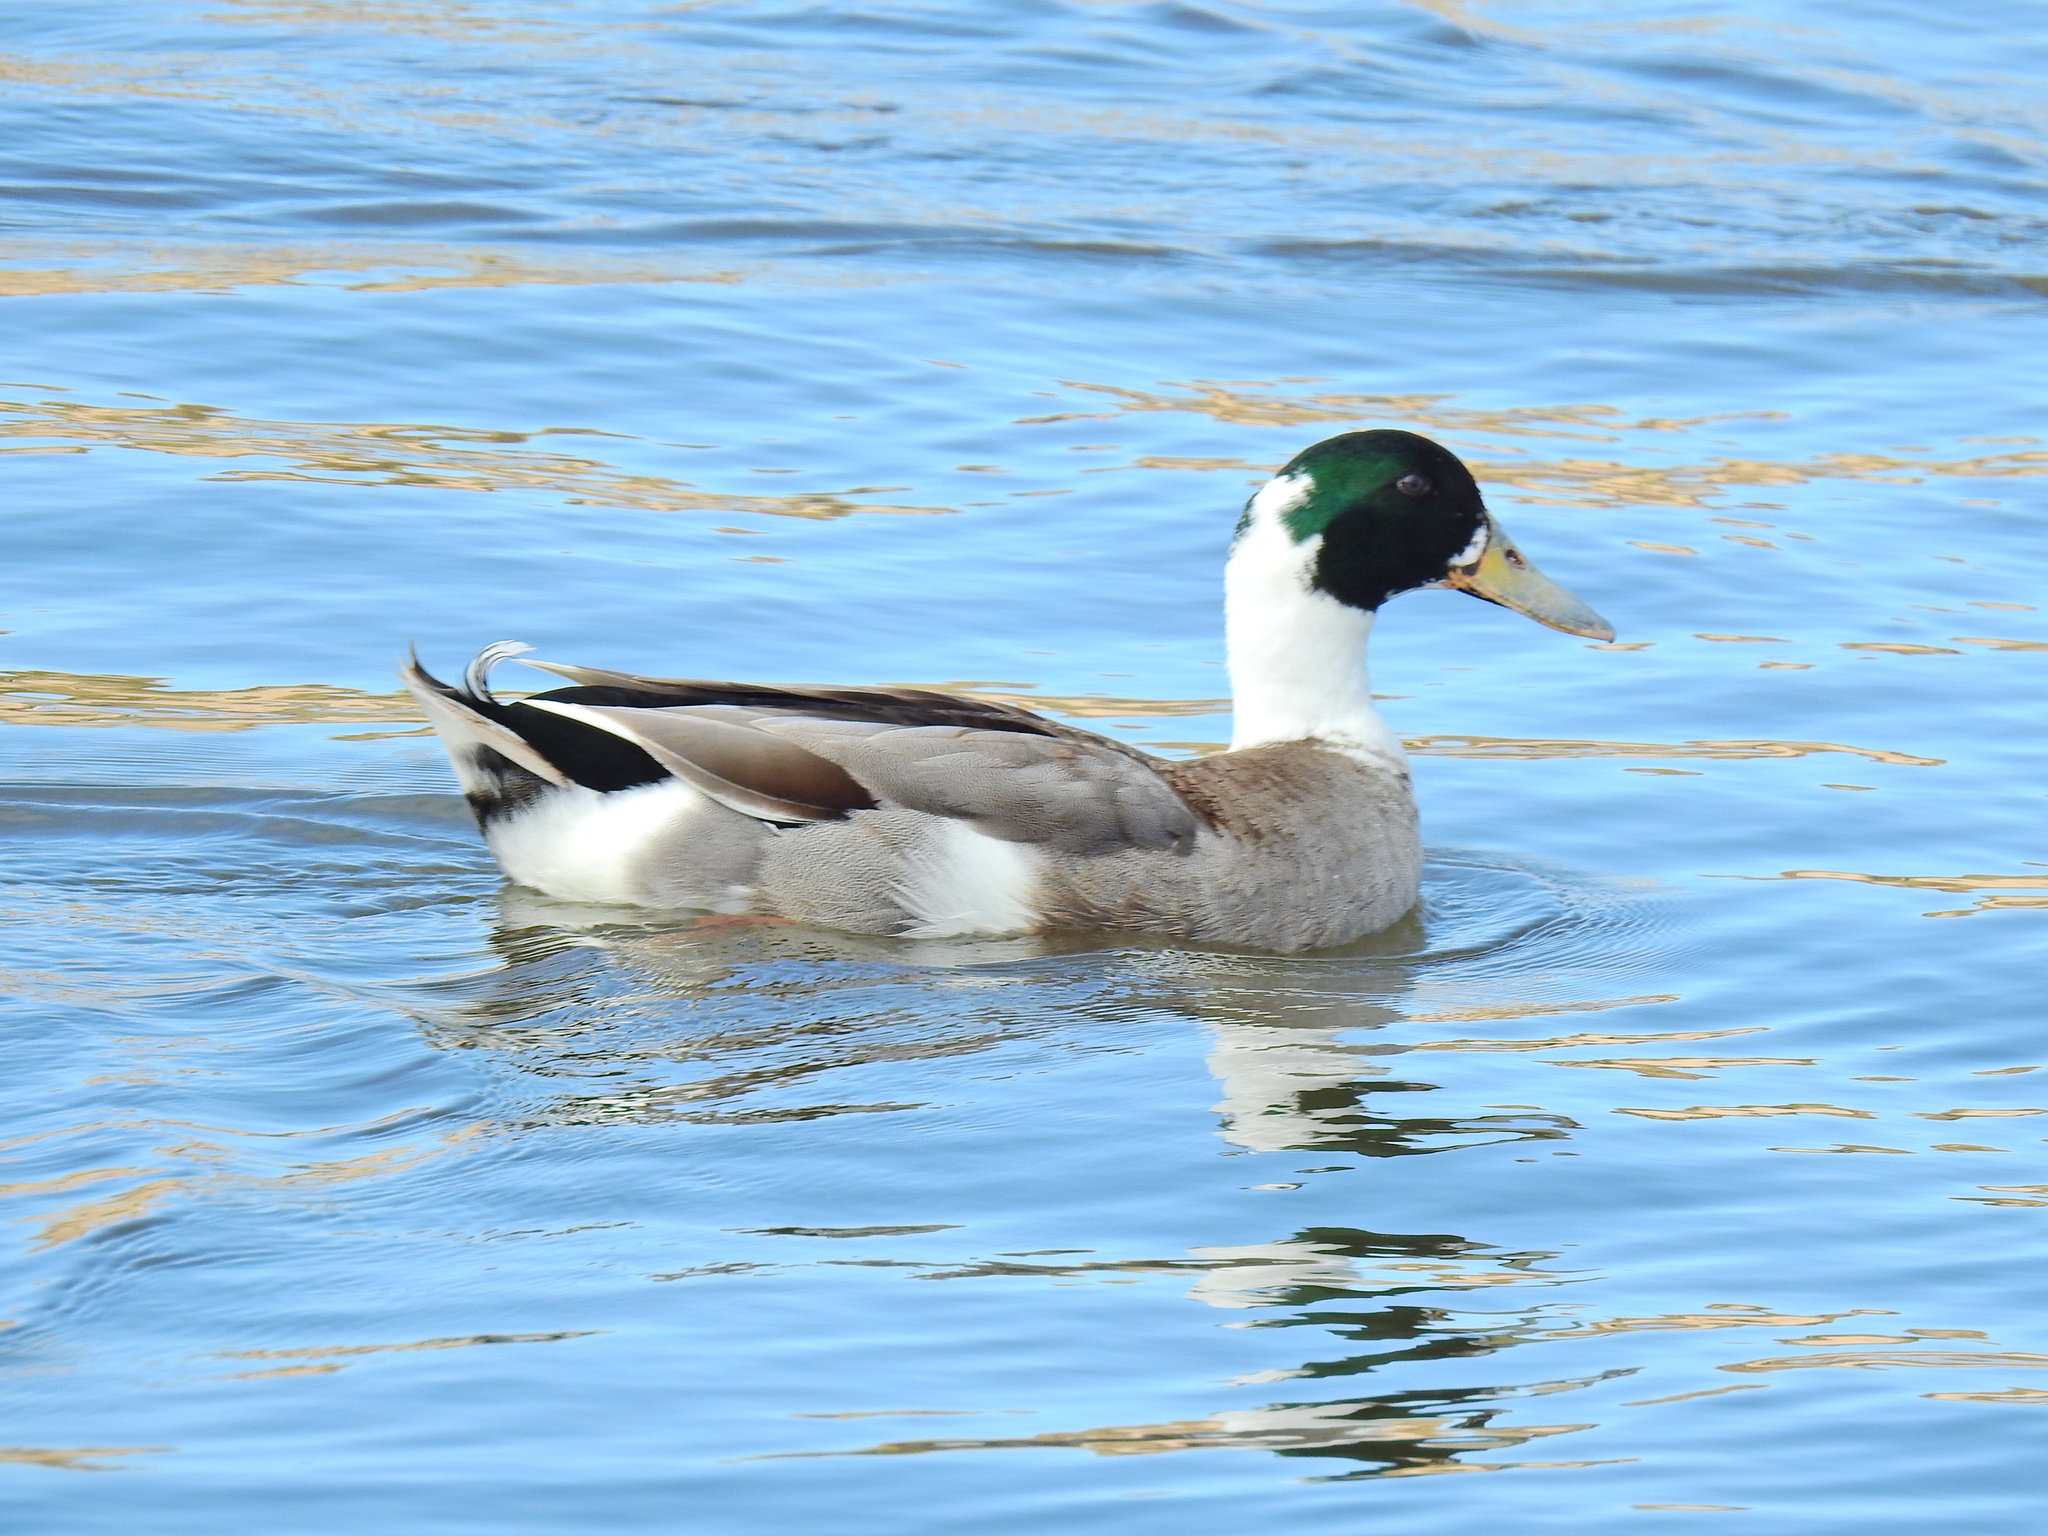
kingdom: Animalia
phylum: Chordata
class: Aves
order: Anseriformes
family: Anatidae
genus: Anas
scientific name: Anas platyrhynchos
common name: Mallard
